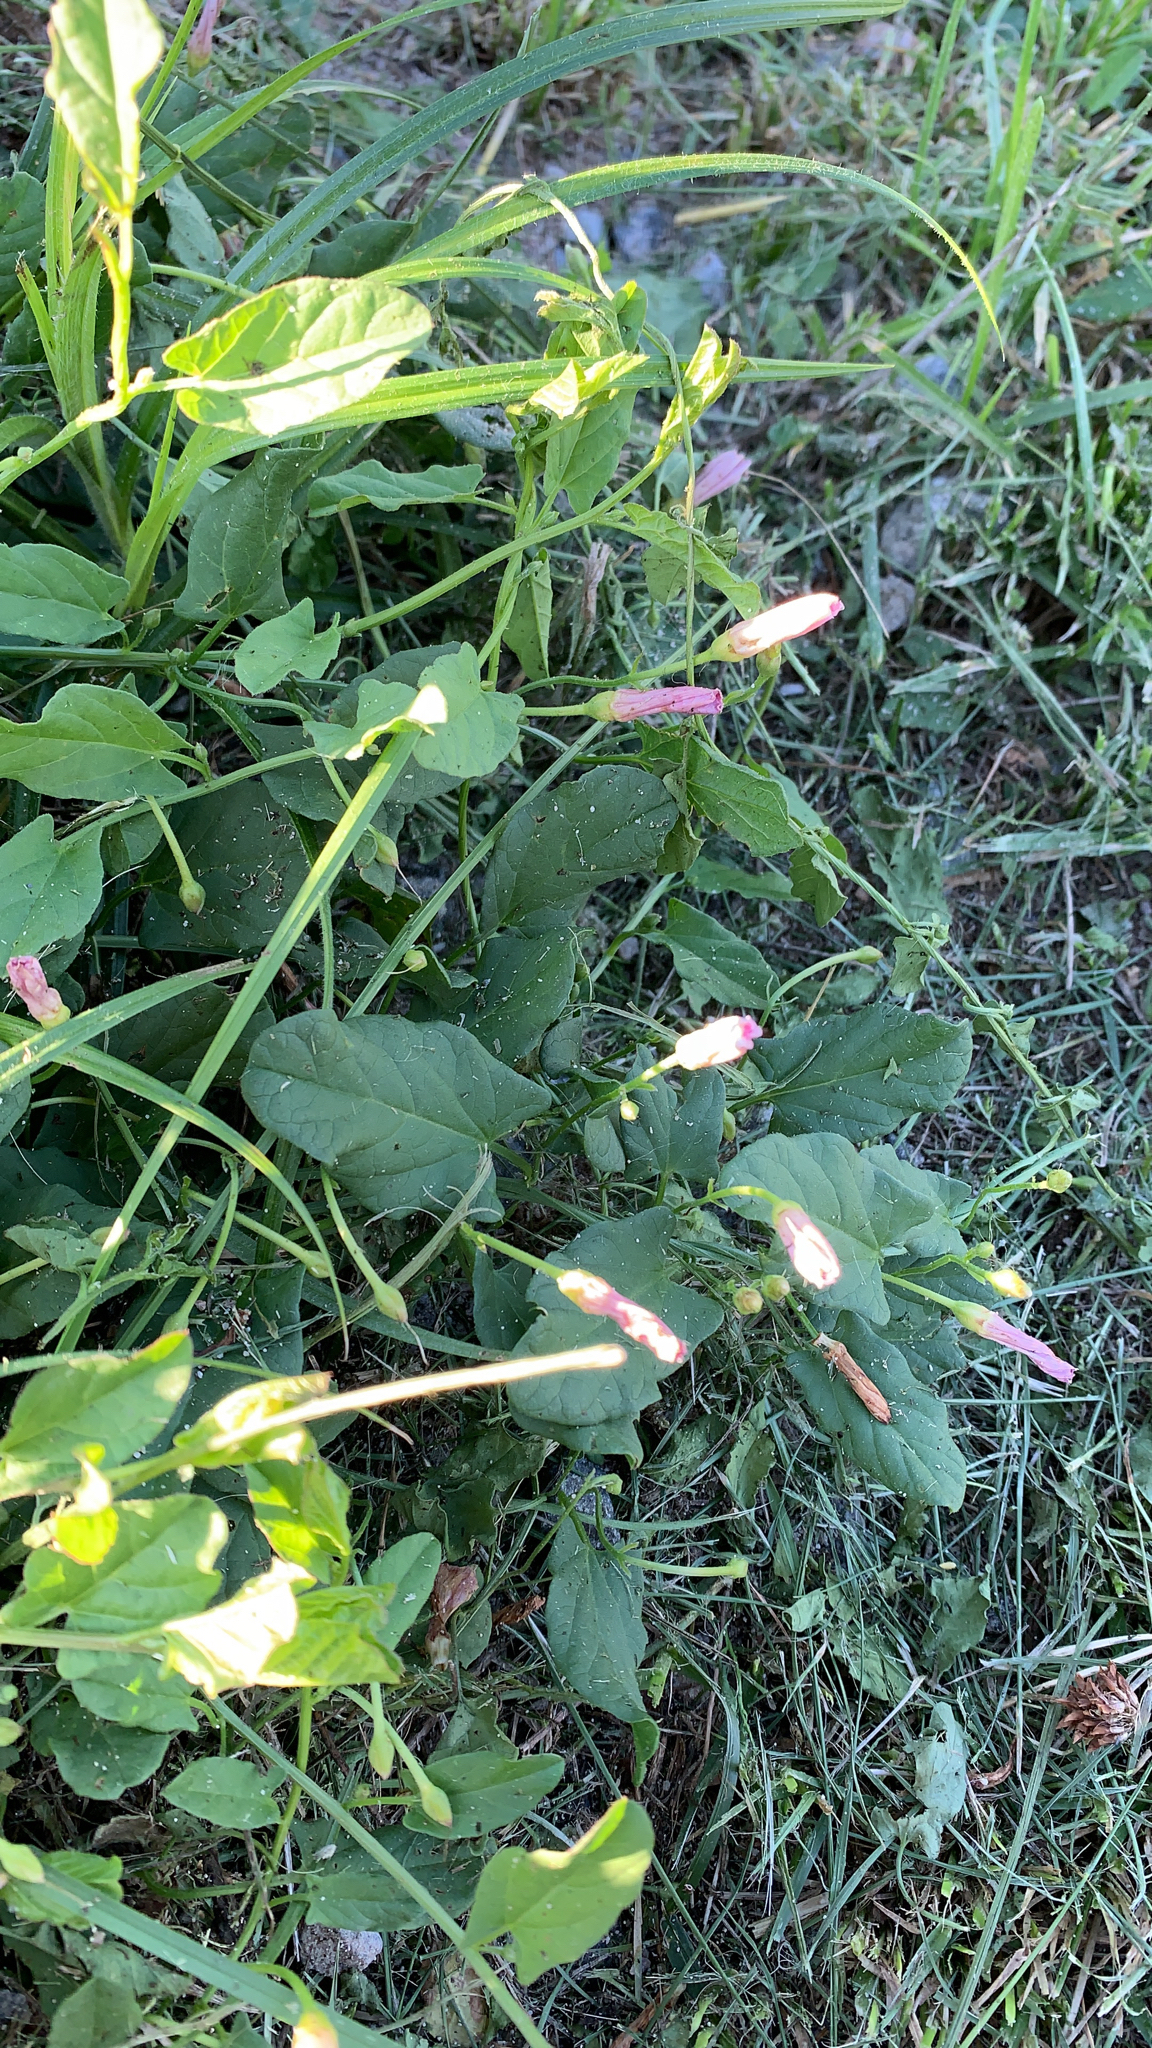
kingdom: Plantae
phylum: Tracheophyta
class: Magnoliopsida
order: Solanales
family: Convolvulaceae
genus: Convolvulus
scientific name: Convolvulus arvensis
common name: Field bindweed
